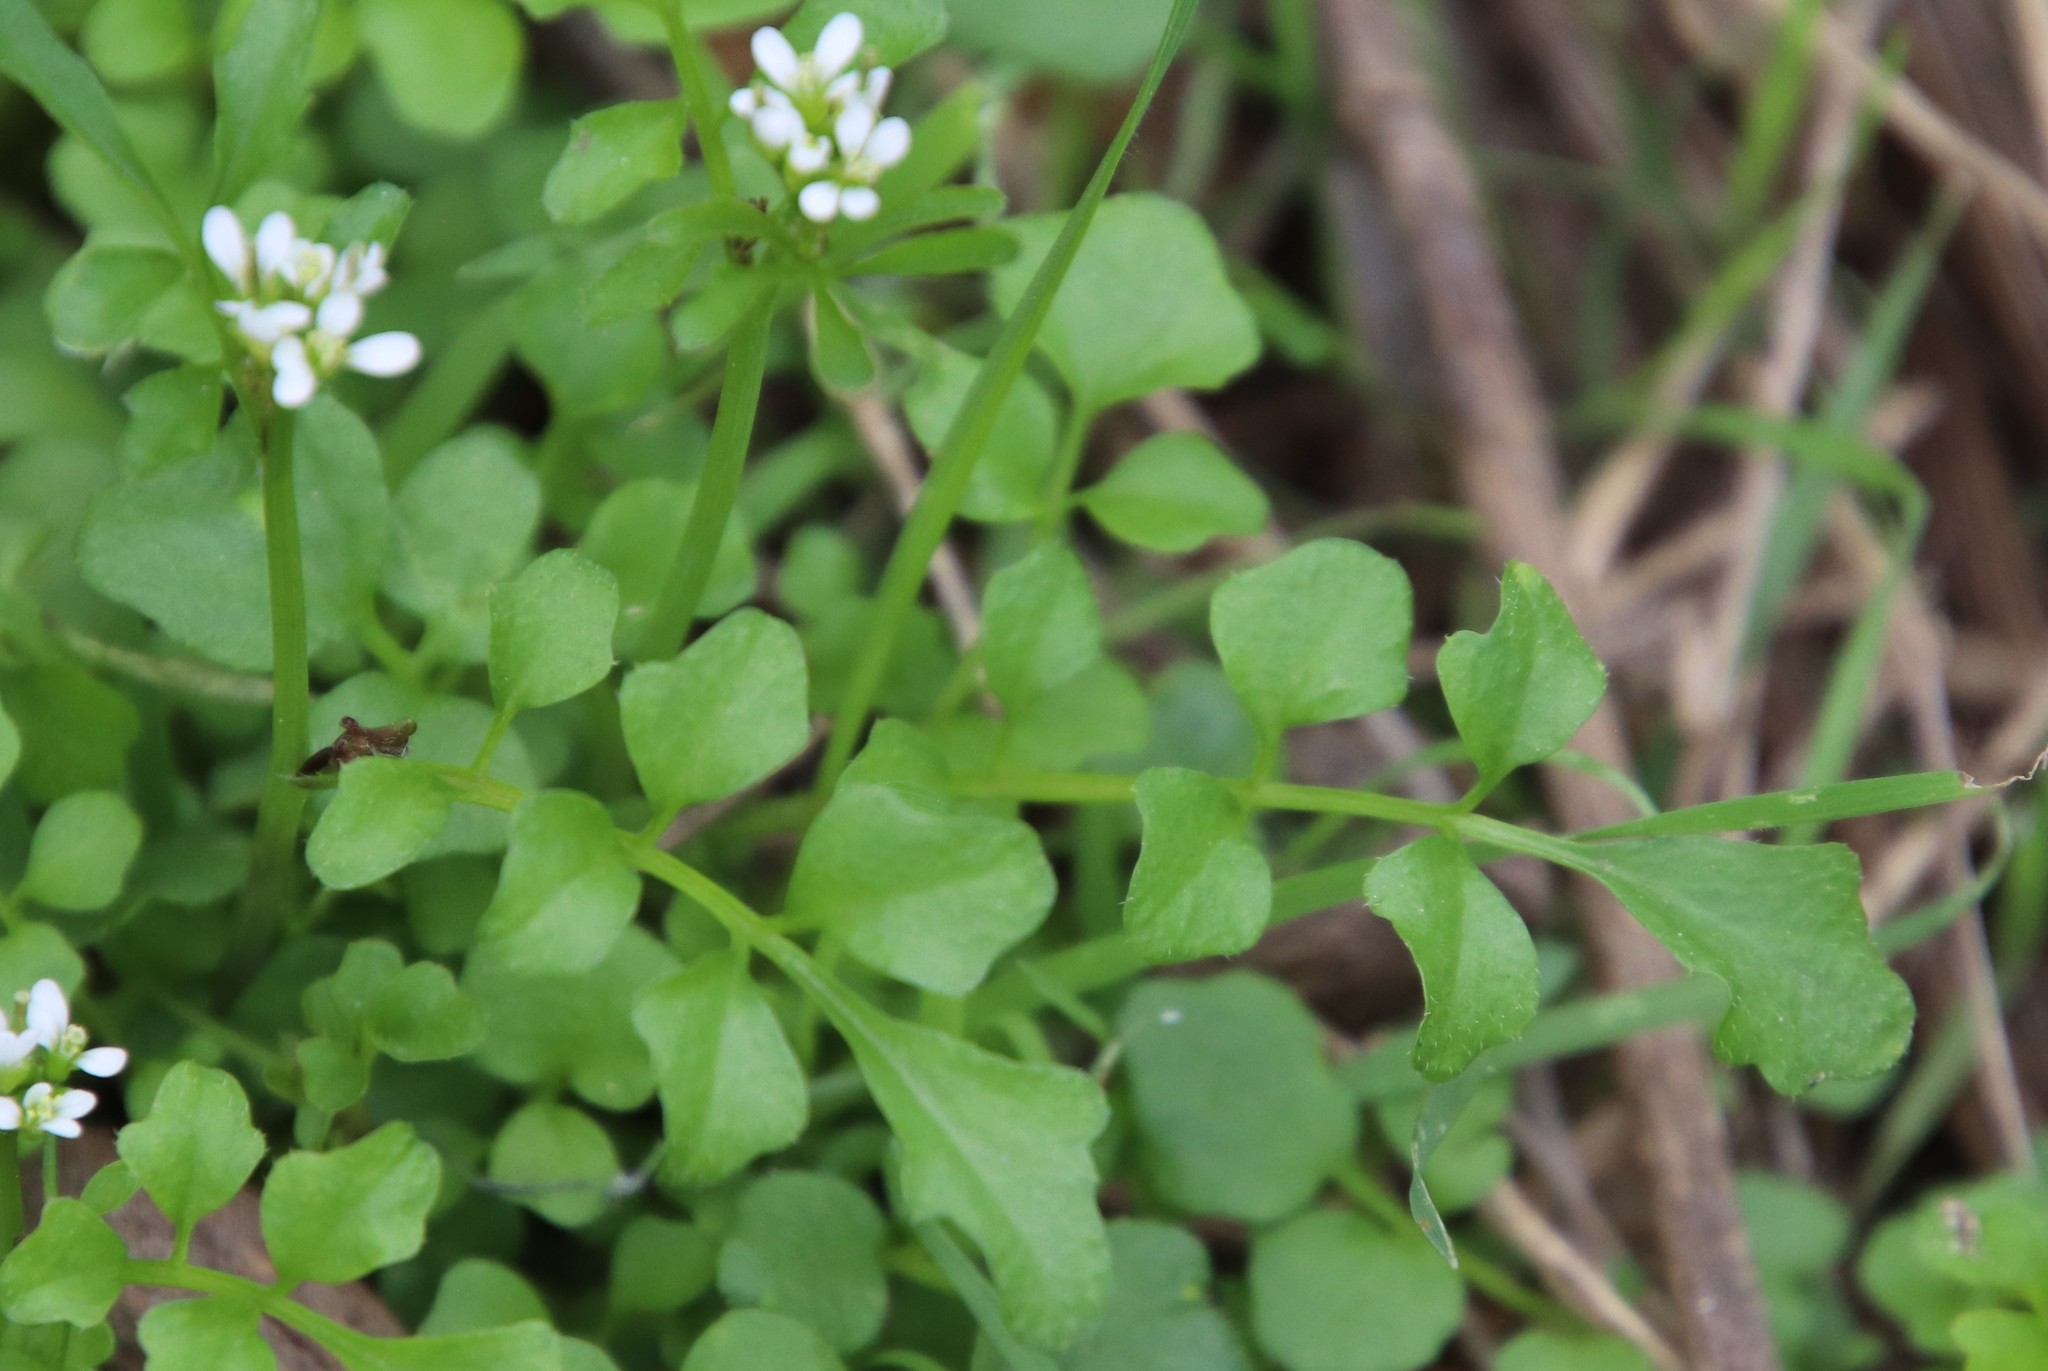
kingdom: Plantae
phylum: Tracheophyta
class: Magnoliopsida
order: Brassicales
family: Brassicaceae
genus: Cardamine
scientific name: Cardamine hirsuta
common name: Hairy bittercress
